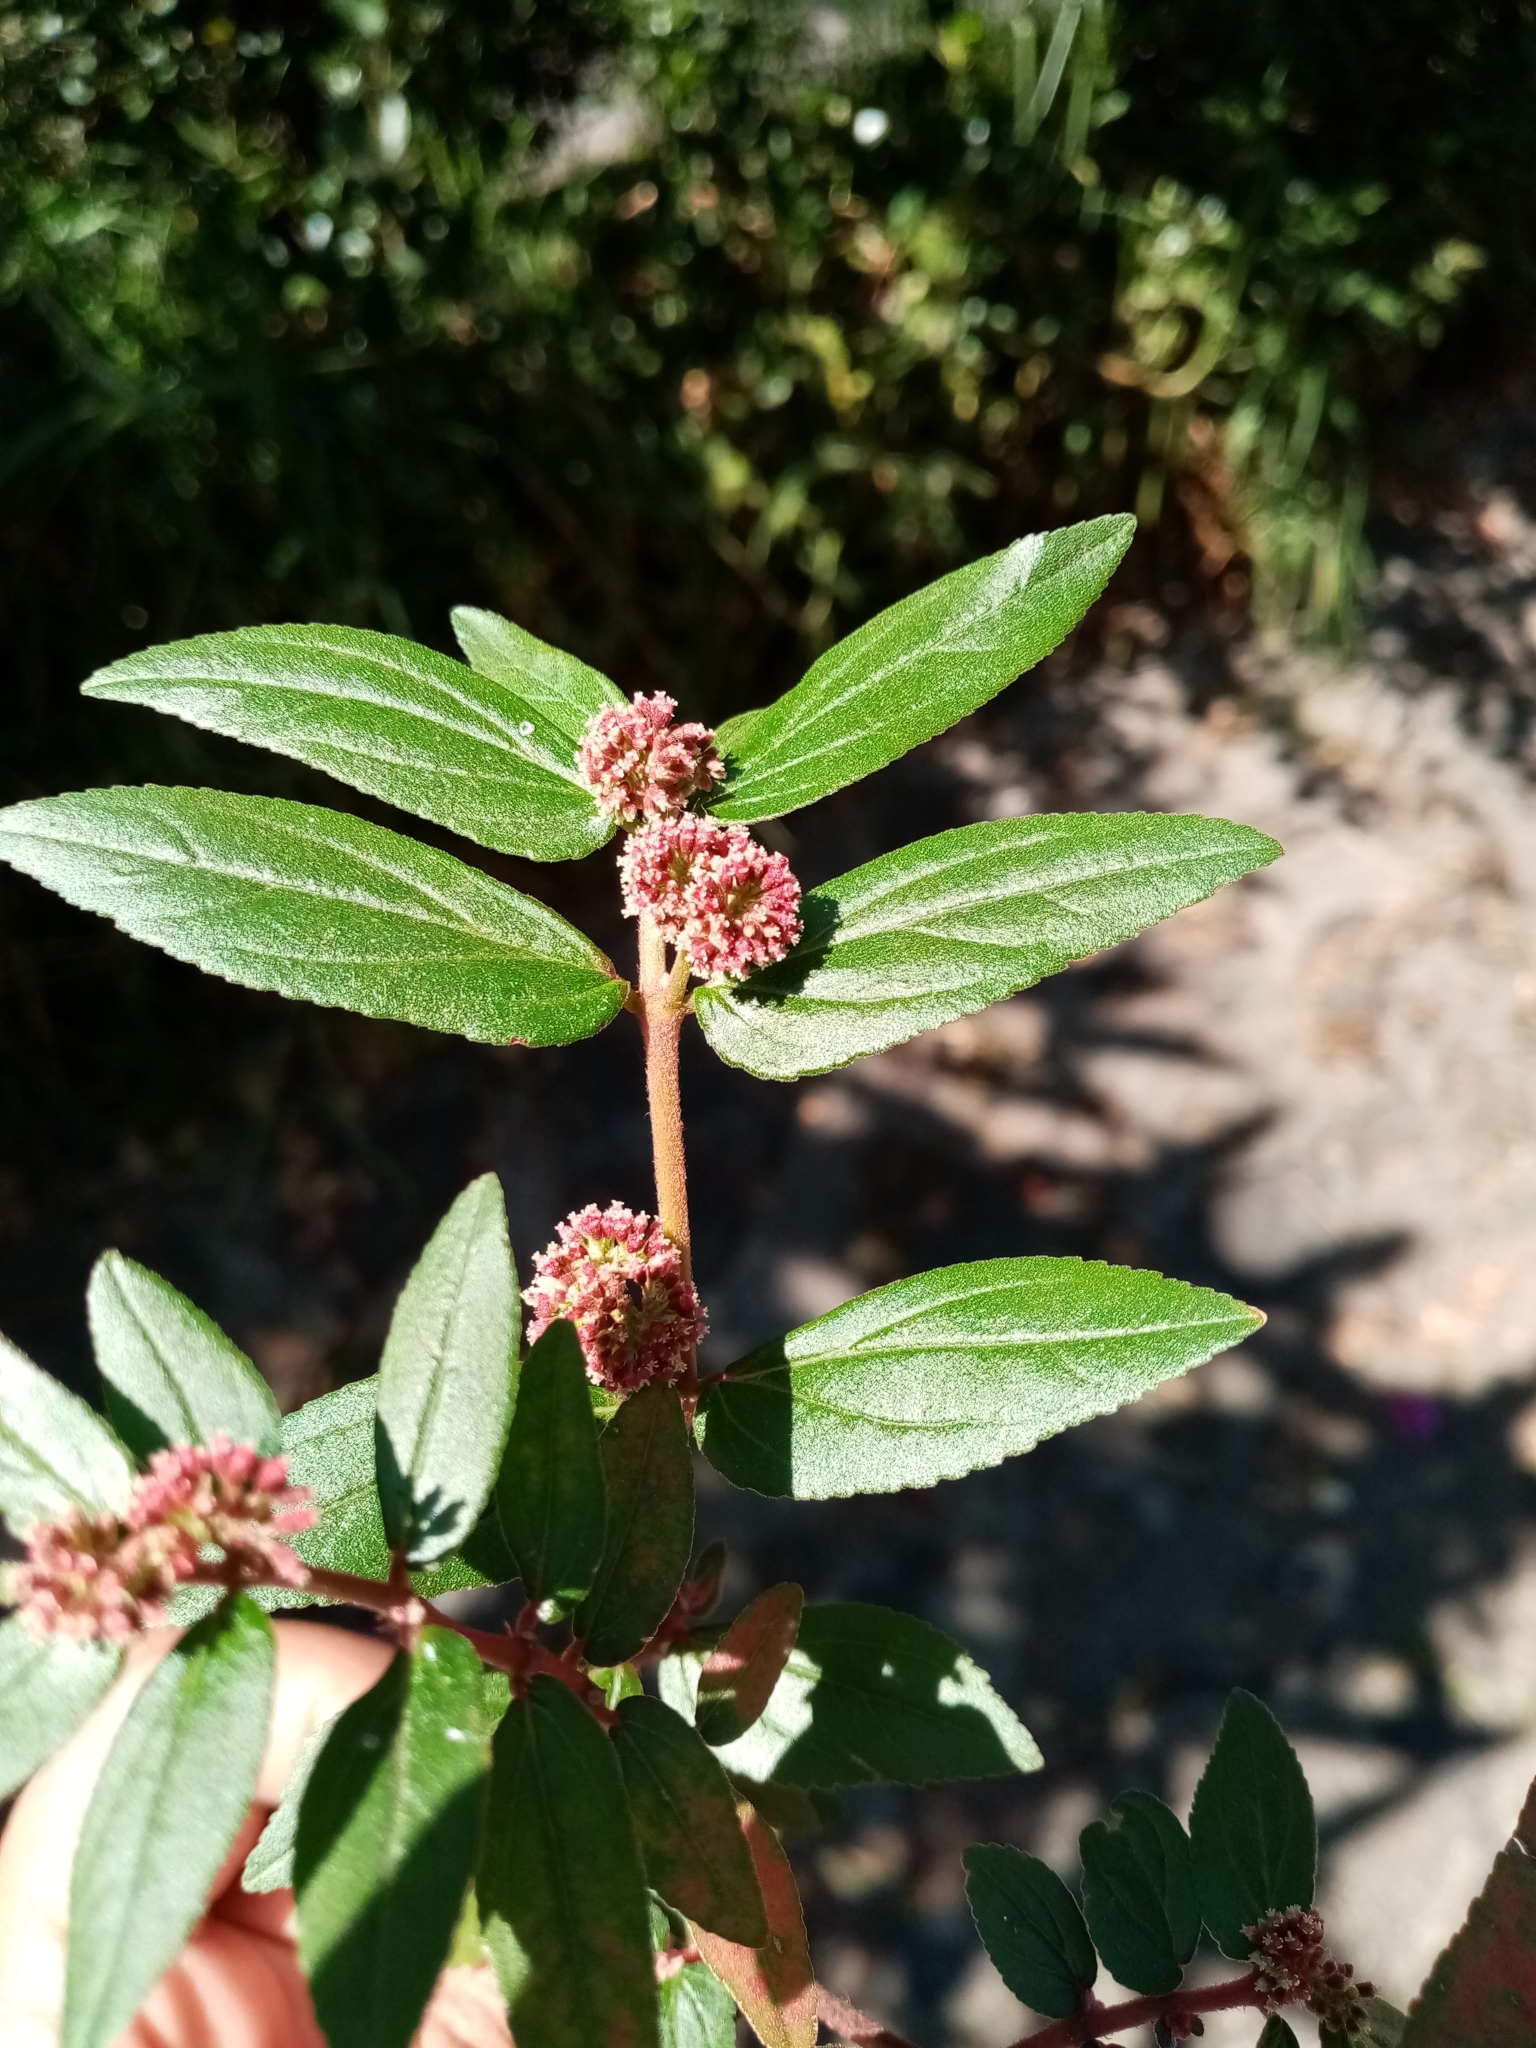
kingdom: Plantae
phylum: Tracheophyta
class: Magnoliopsida
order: Malpighiales
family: Euphorbiaceae
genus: Euphorbia
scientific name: Euphorbia hirta
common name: Pillpod sandmat
